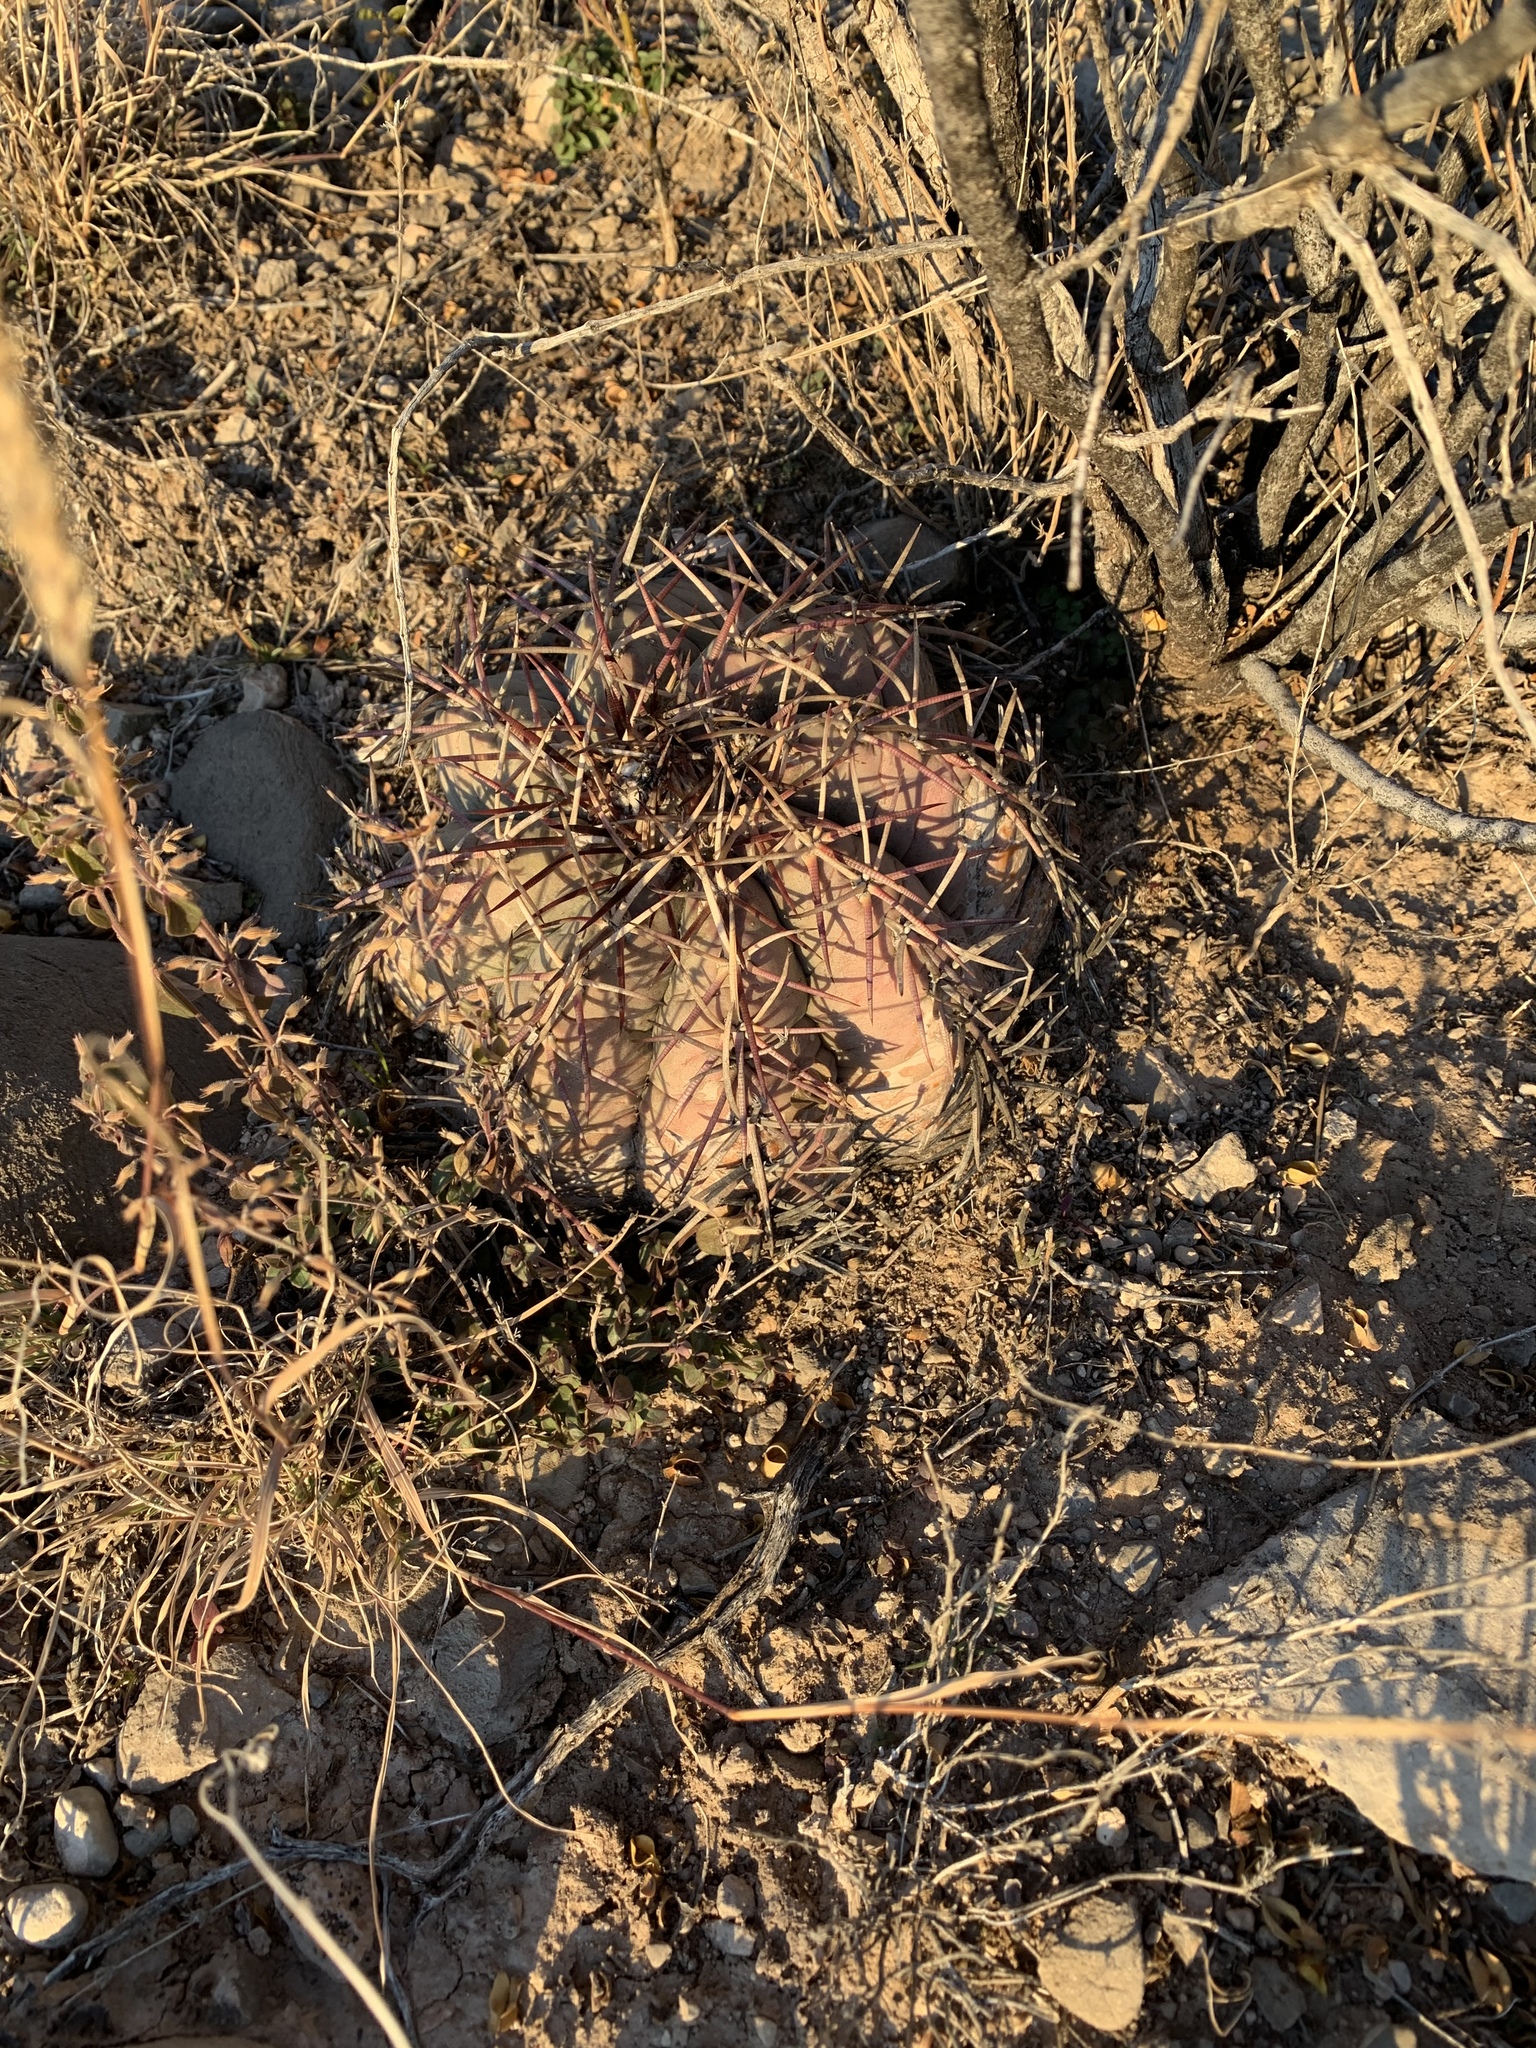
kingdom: Plantae
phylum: Tracheophyta
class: Magnoliopsida
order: Caryophyllales
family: Cactaceae
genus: Echinocactus
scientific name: Echinocactus horizonthalonius
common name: Devilshead
